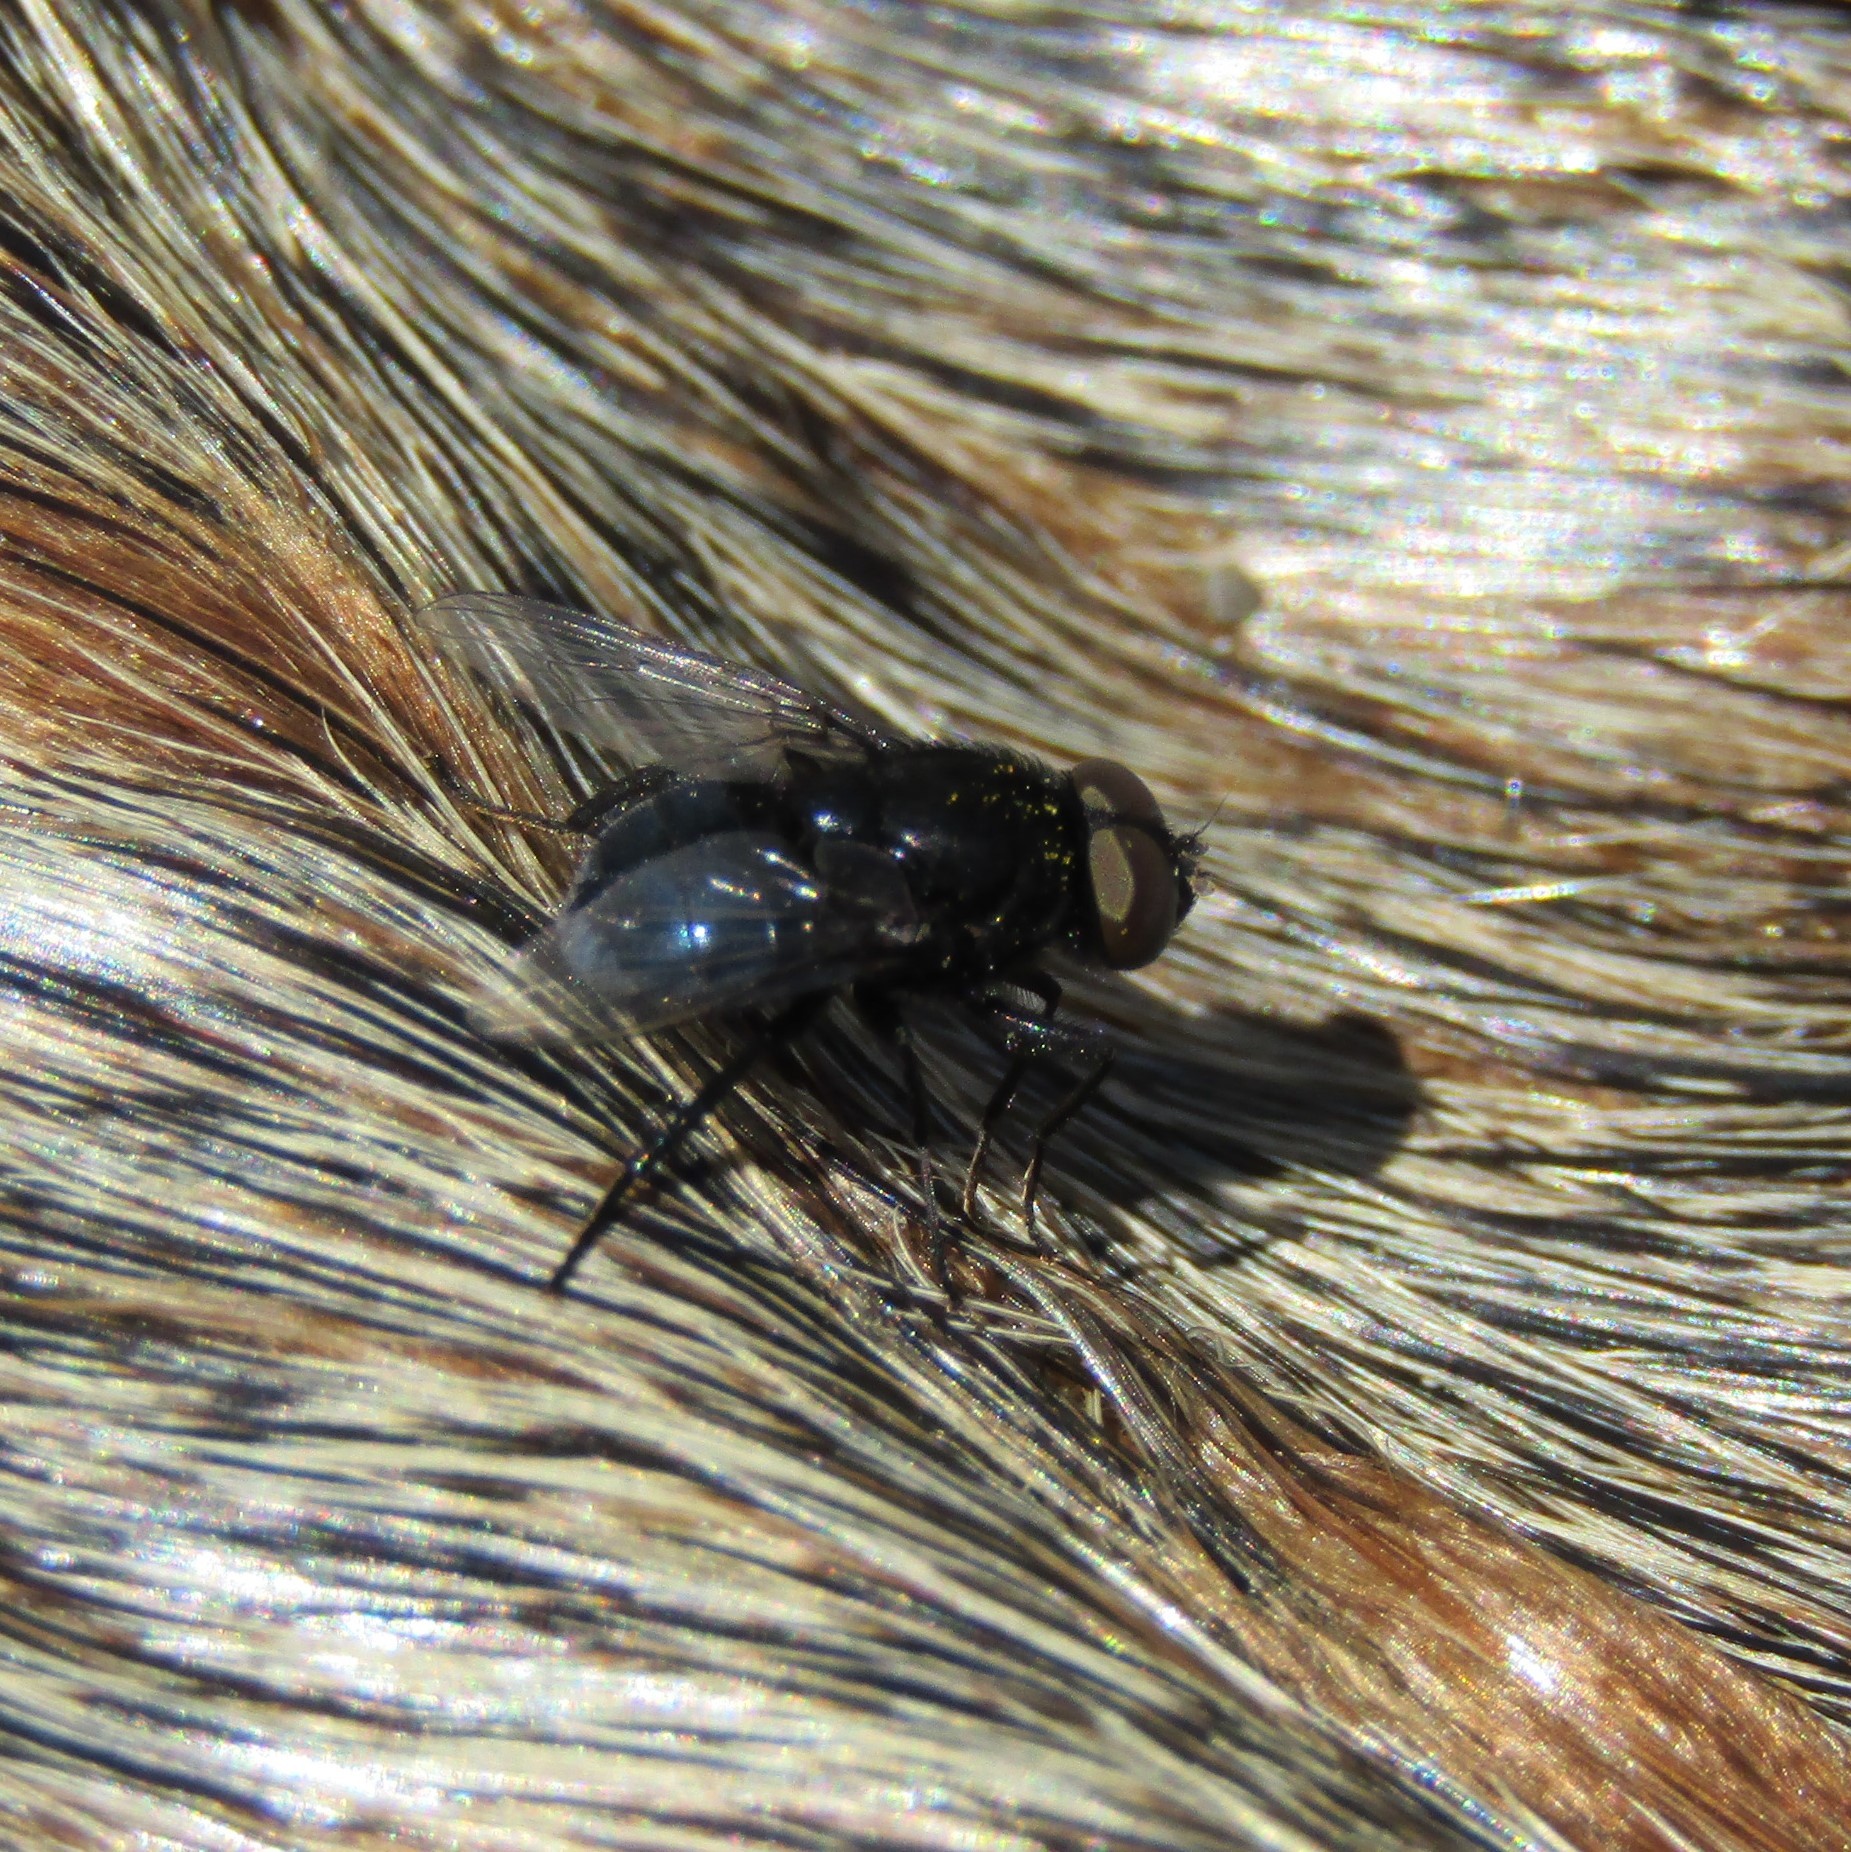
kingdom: Animalia
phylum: Arthropoda
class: Insecta
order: Diptera
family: Muscidae
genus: Australophyra
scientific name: Australophyra rostrata
